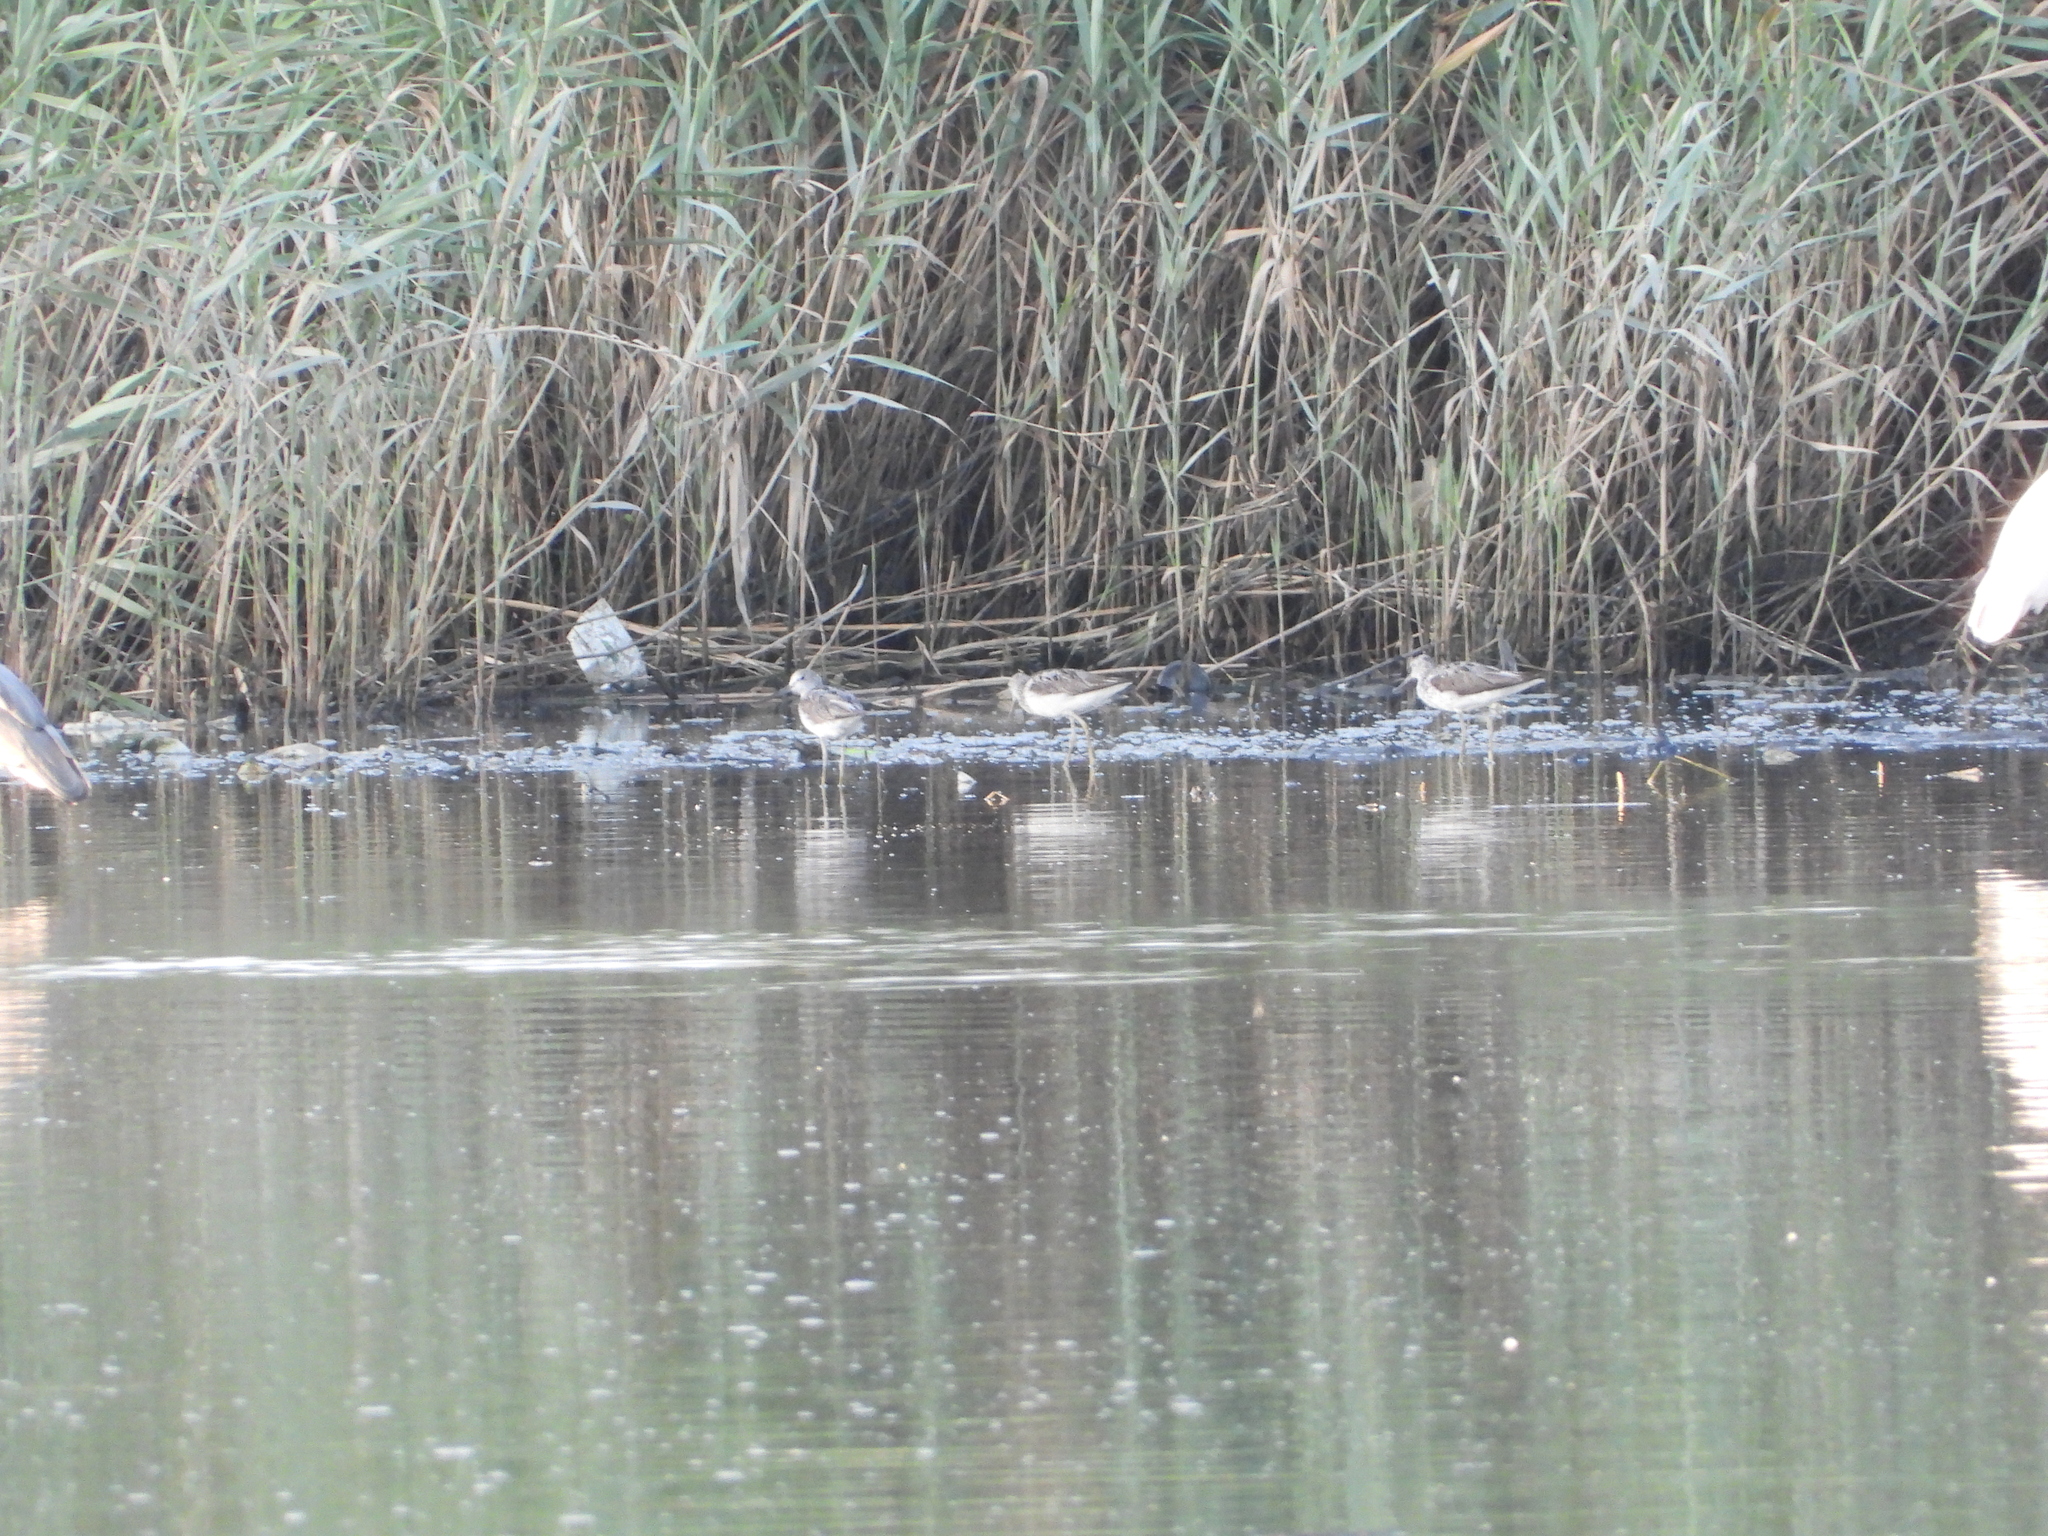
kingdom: Animalia
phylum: Chordata
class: Aves
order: Charadriiformes
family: Scolopacidae
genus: Tringa
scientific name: Tringa nebularia
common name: Common greenshank
